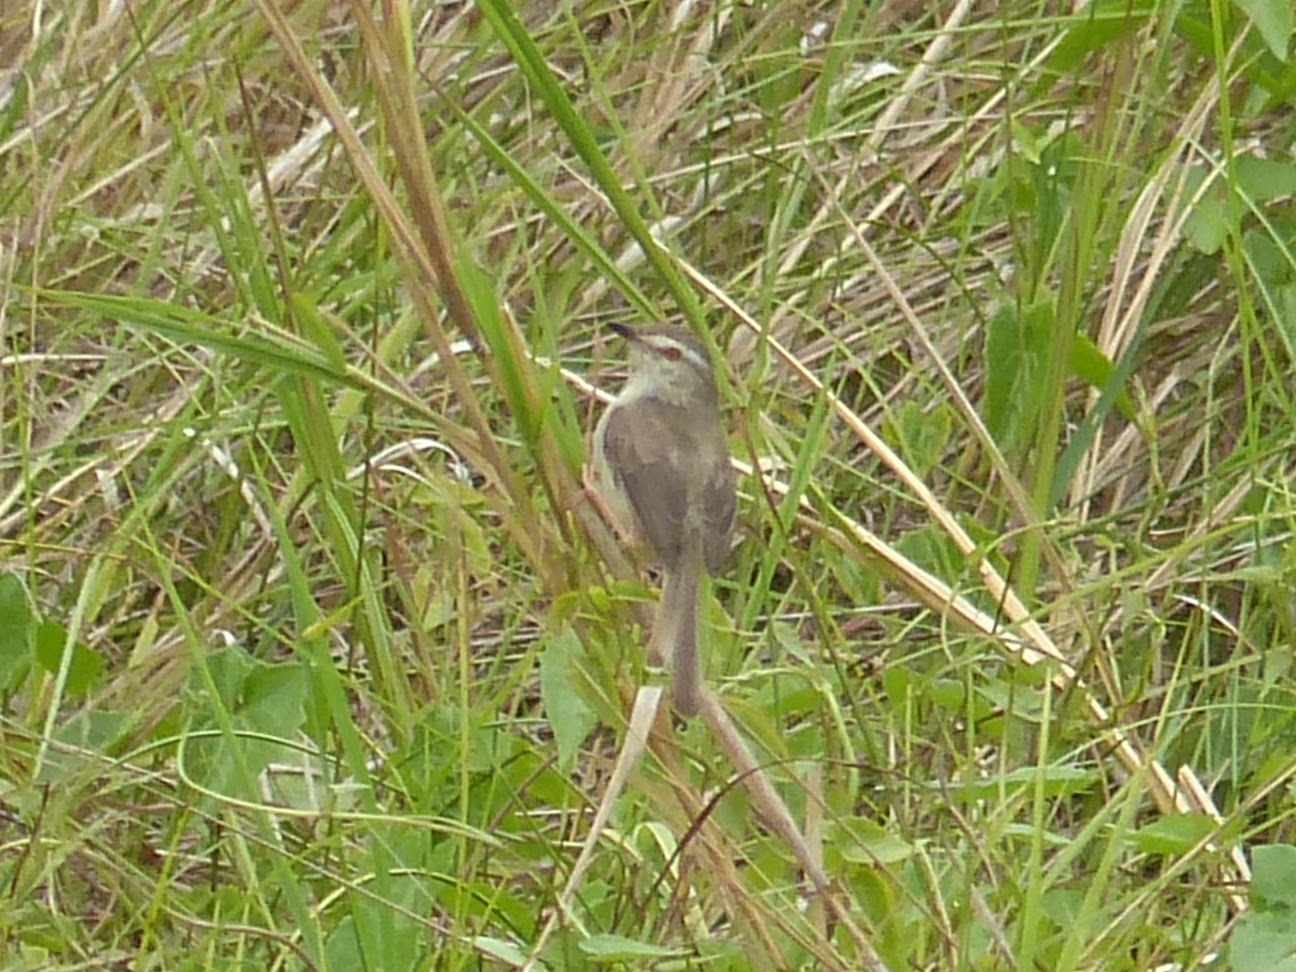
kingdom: Animalia
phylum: Chordata
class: Aves
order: Passeriformes
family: Cisticolidae
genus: Prinia
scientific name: Prinia inornata
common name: Plain prinia
